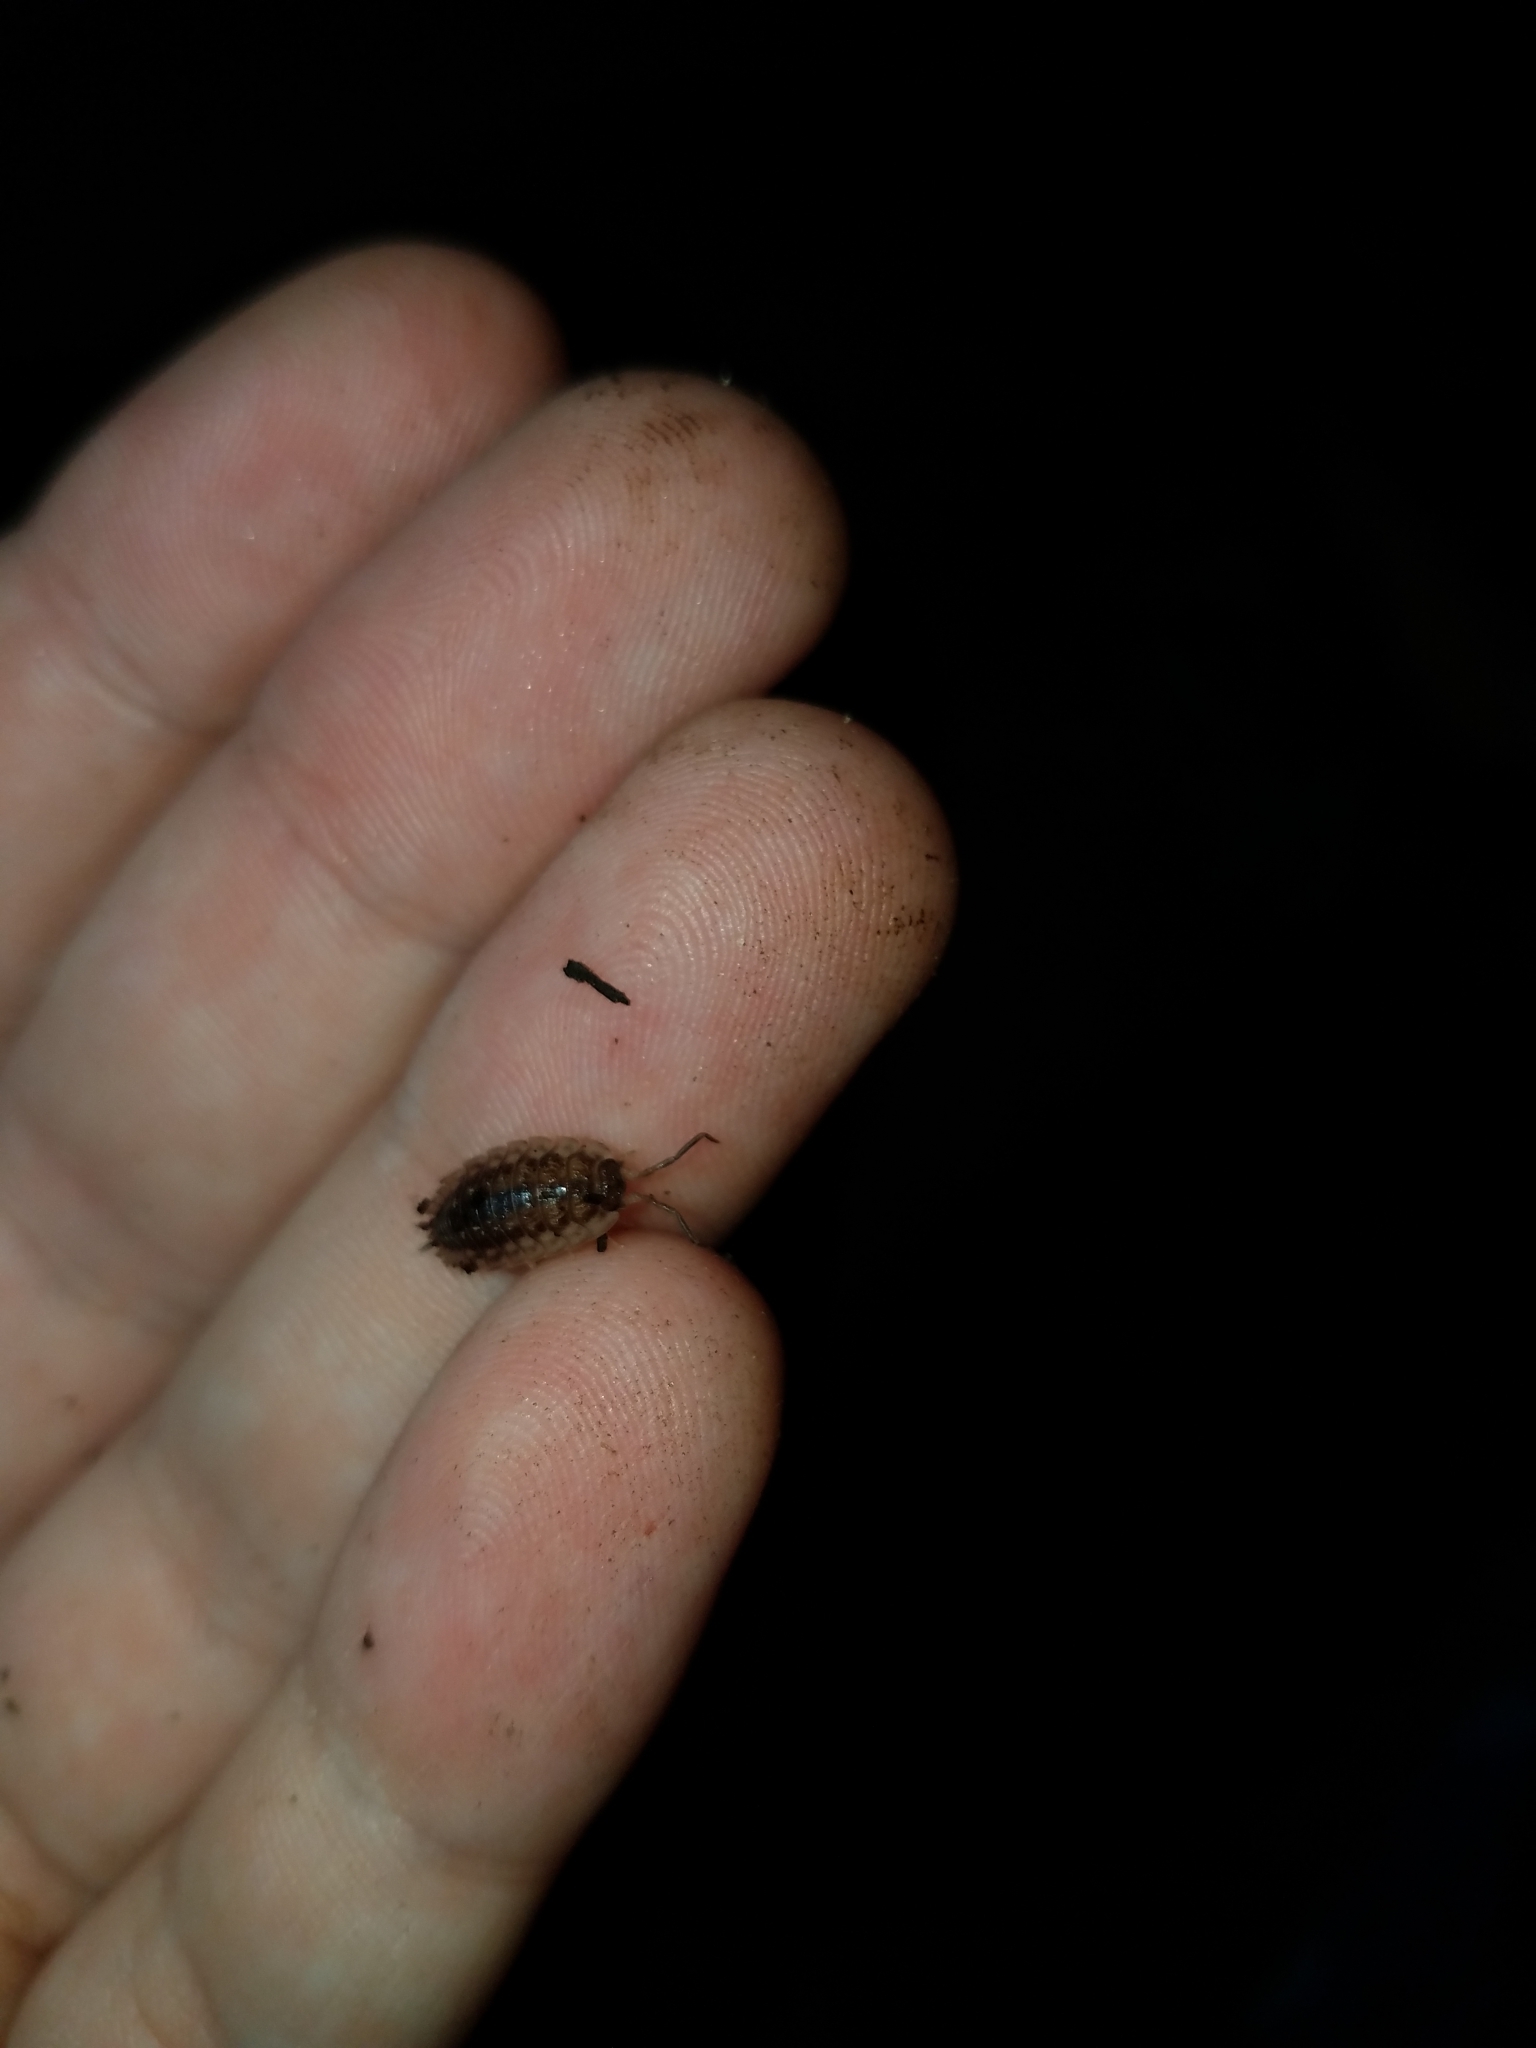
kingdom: Animalia
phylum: Arthropoda
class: Malacostraca
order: Isopoda
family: Oniscidae
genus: Oniscus
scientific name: Oniscus asellus
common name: Common shiny woodlouse
